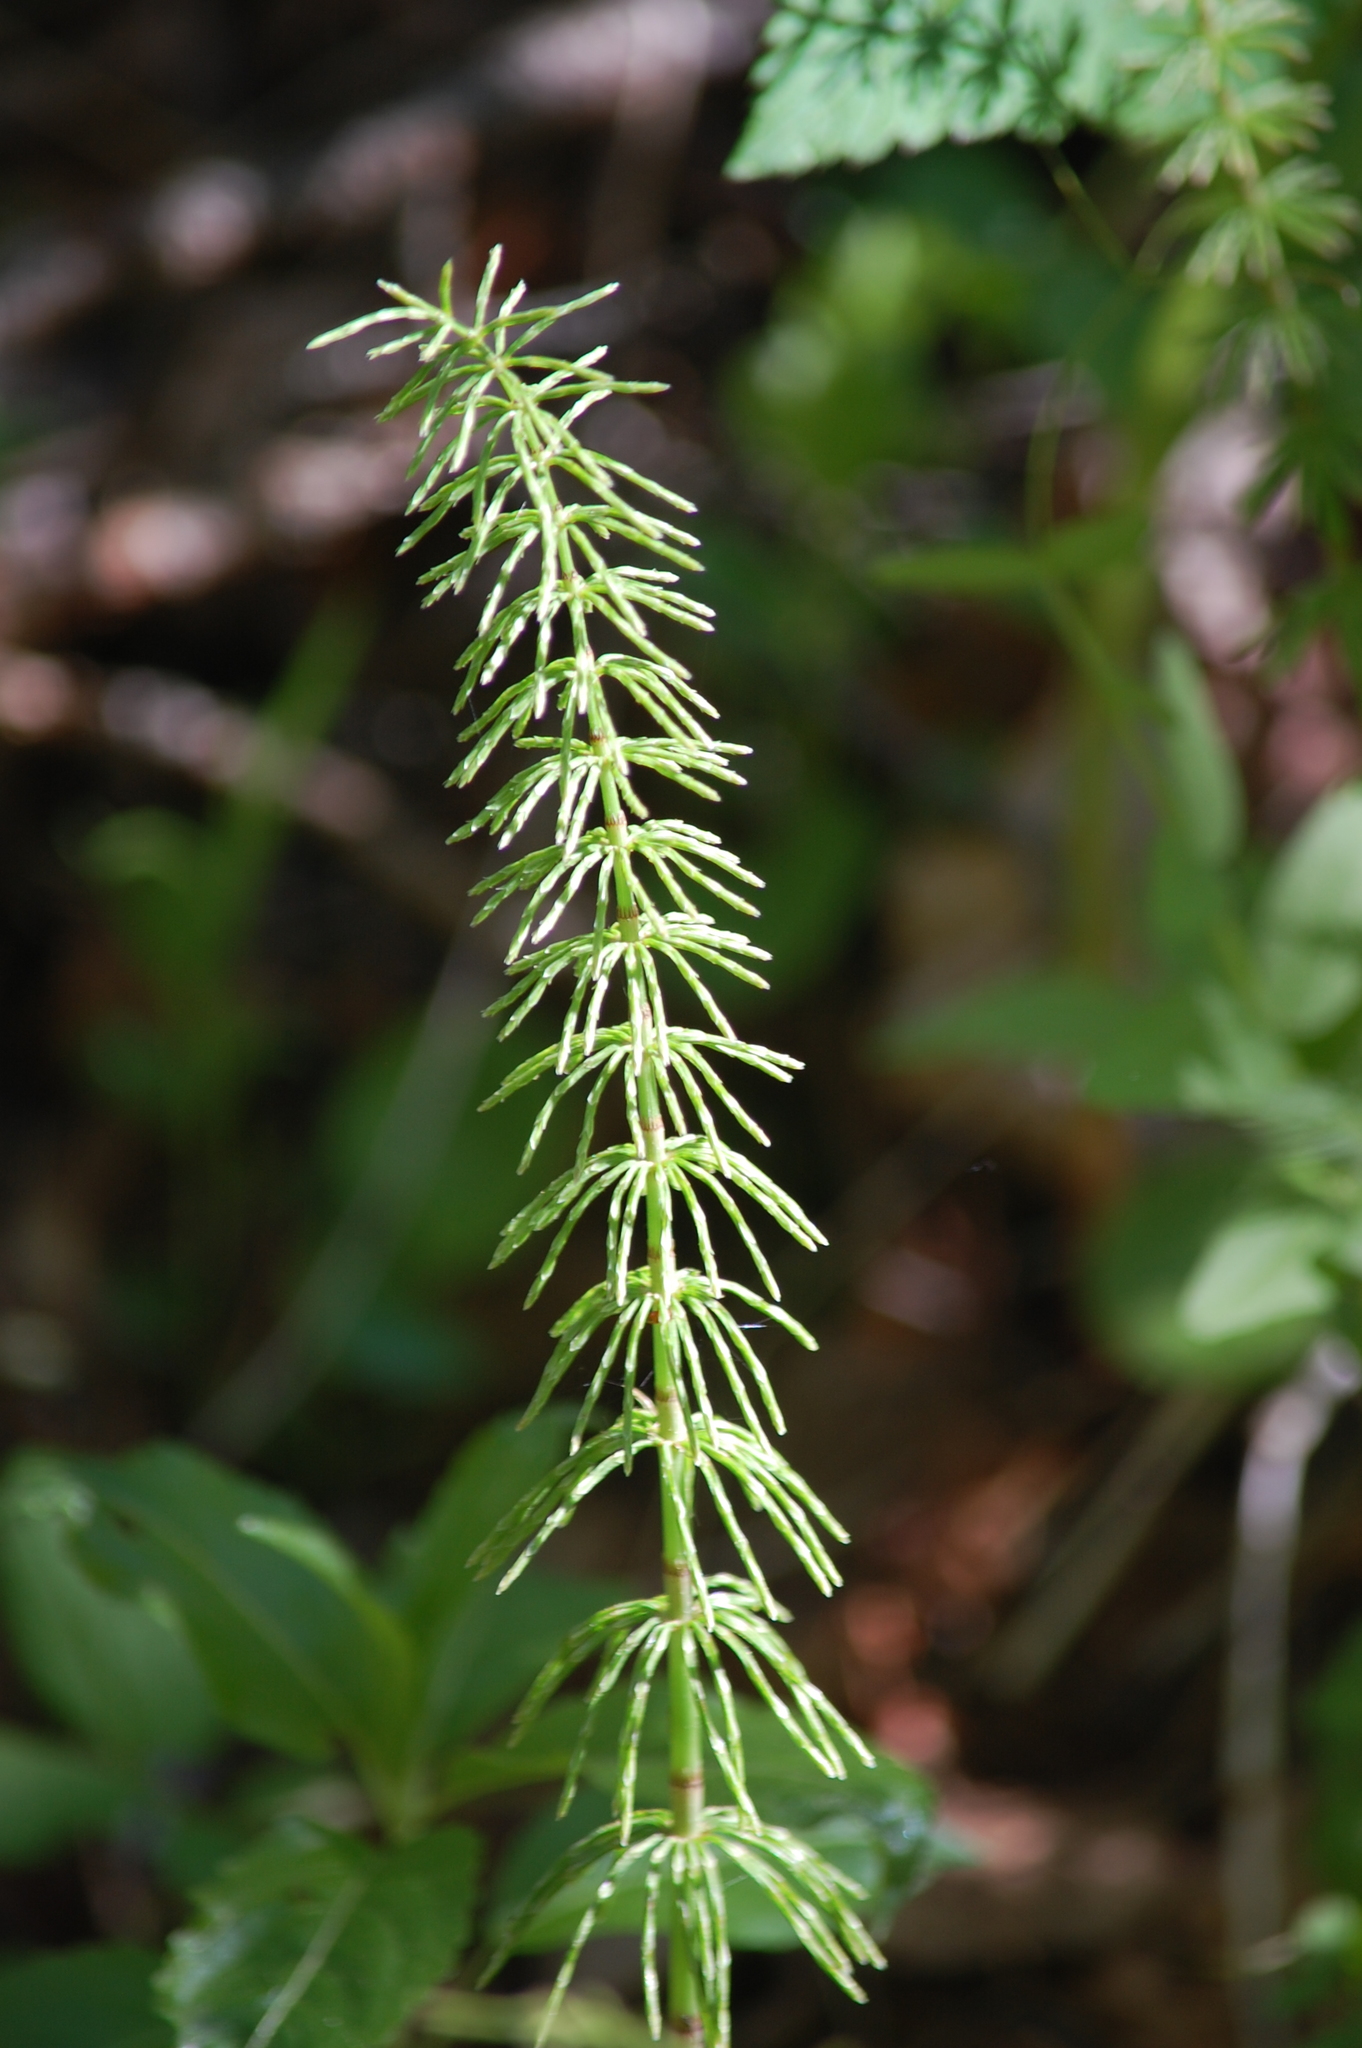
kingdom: Plantae
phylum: Tracheophyta
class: Polypodiopsida
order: Equisetales
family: Equisetaceae
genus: Equisetum
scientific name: Equisetum pratense
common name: Meadow horsetail
